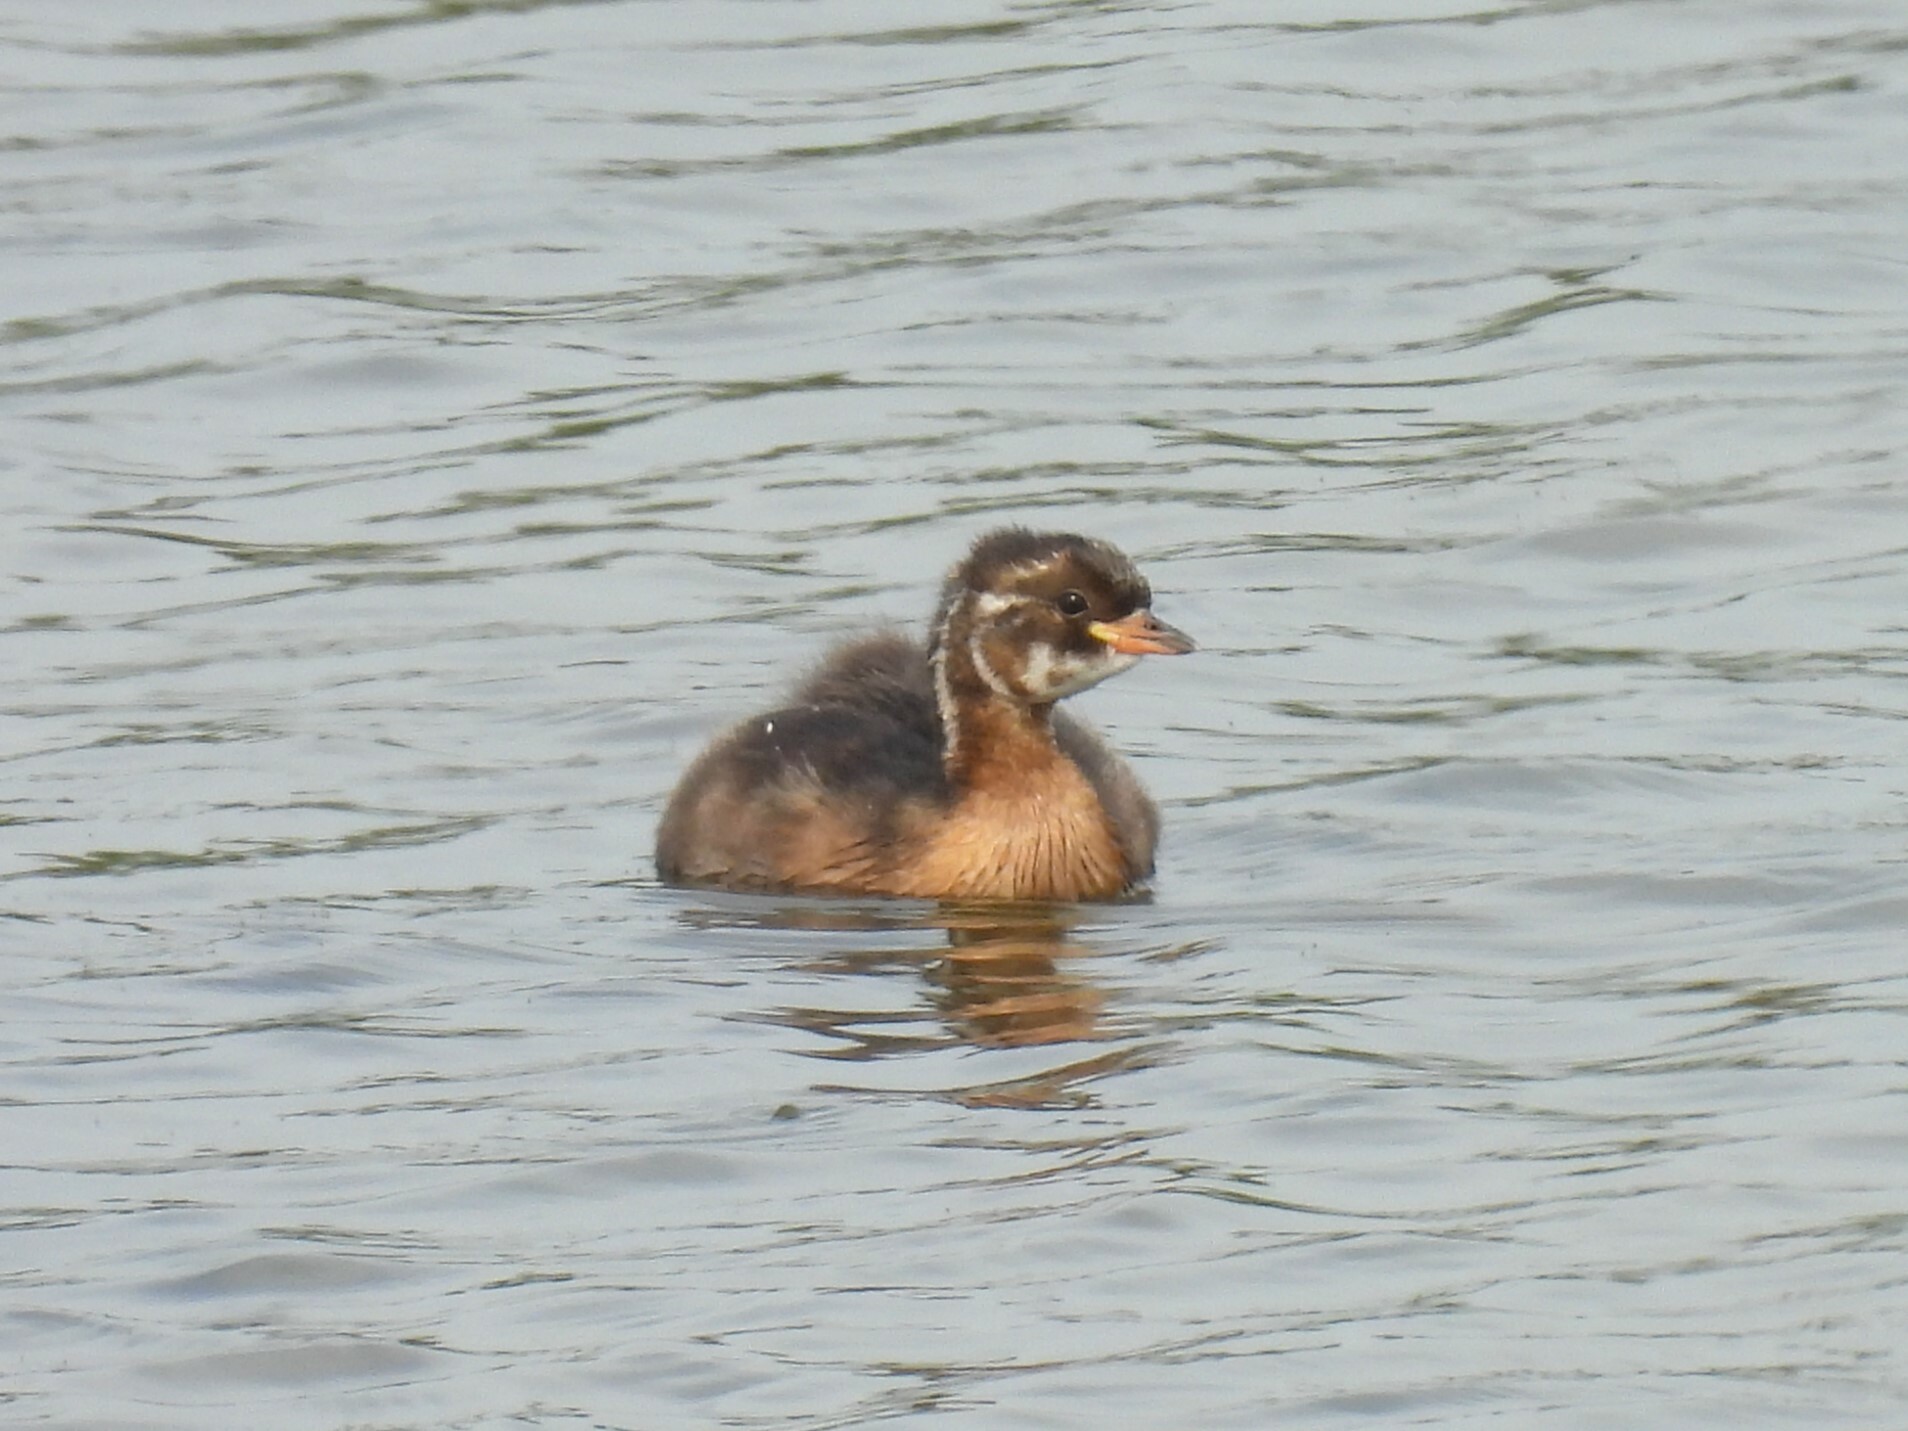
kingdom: Animalia
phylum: Chordata
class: Aves
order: Podicipediformes
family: Podicipedidae
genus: Tachybaptus
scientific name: Tachybaptus ruficollis
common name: Little grebe
